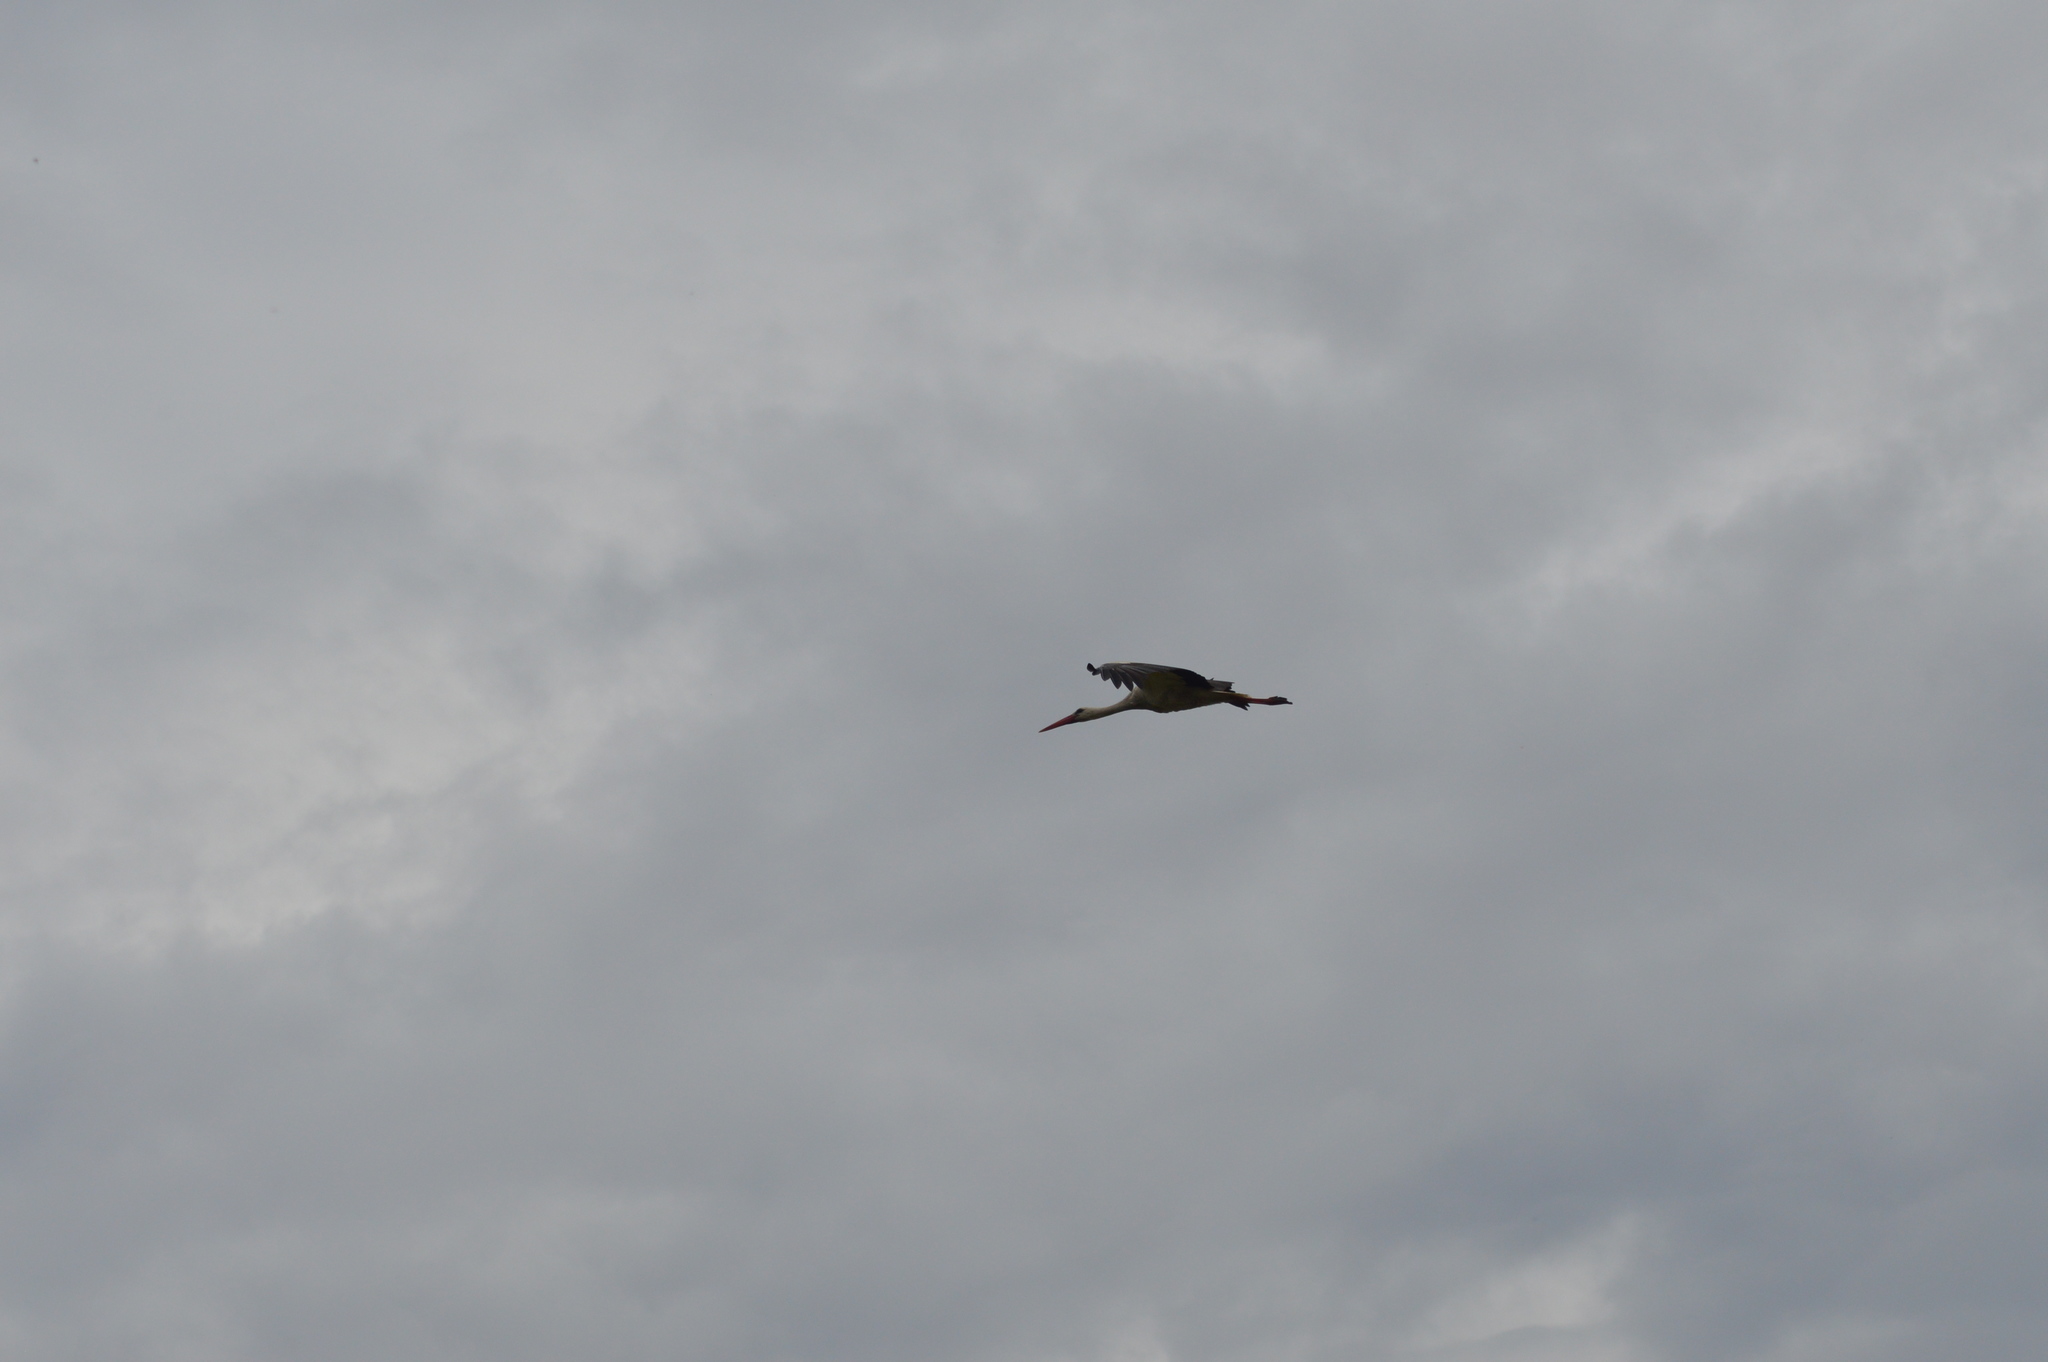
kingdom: Animalia
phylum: Chordata
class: Aves
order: Ciconiiformes
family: Ciconiidae
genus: Ciconia
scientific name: Ciconia ciconia
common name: White stork
